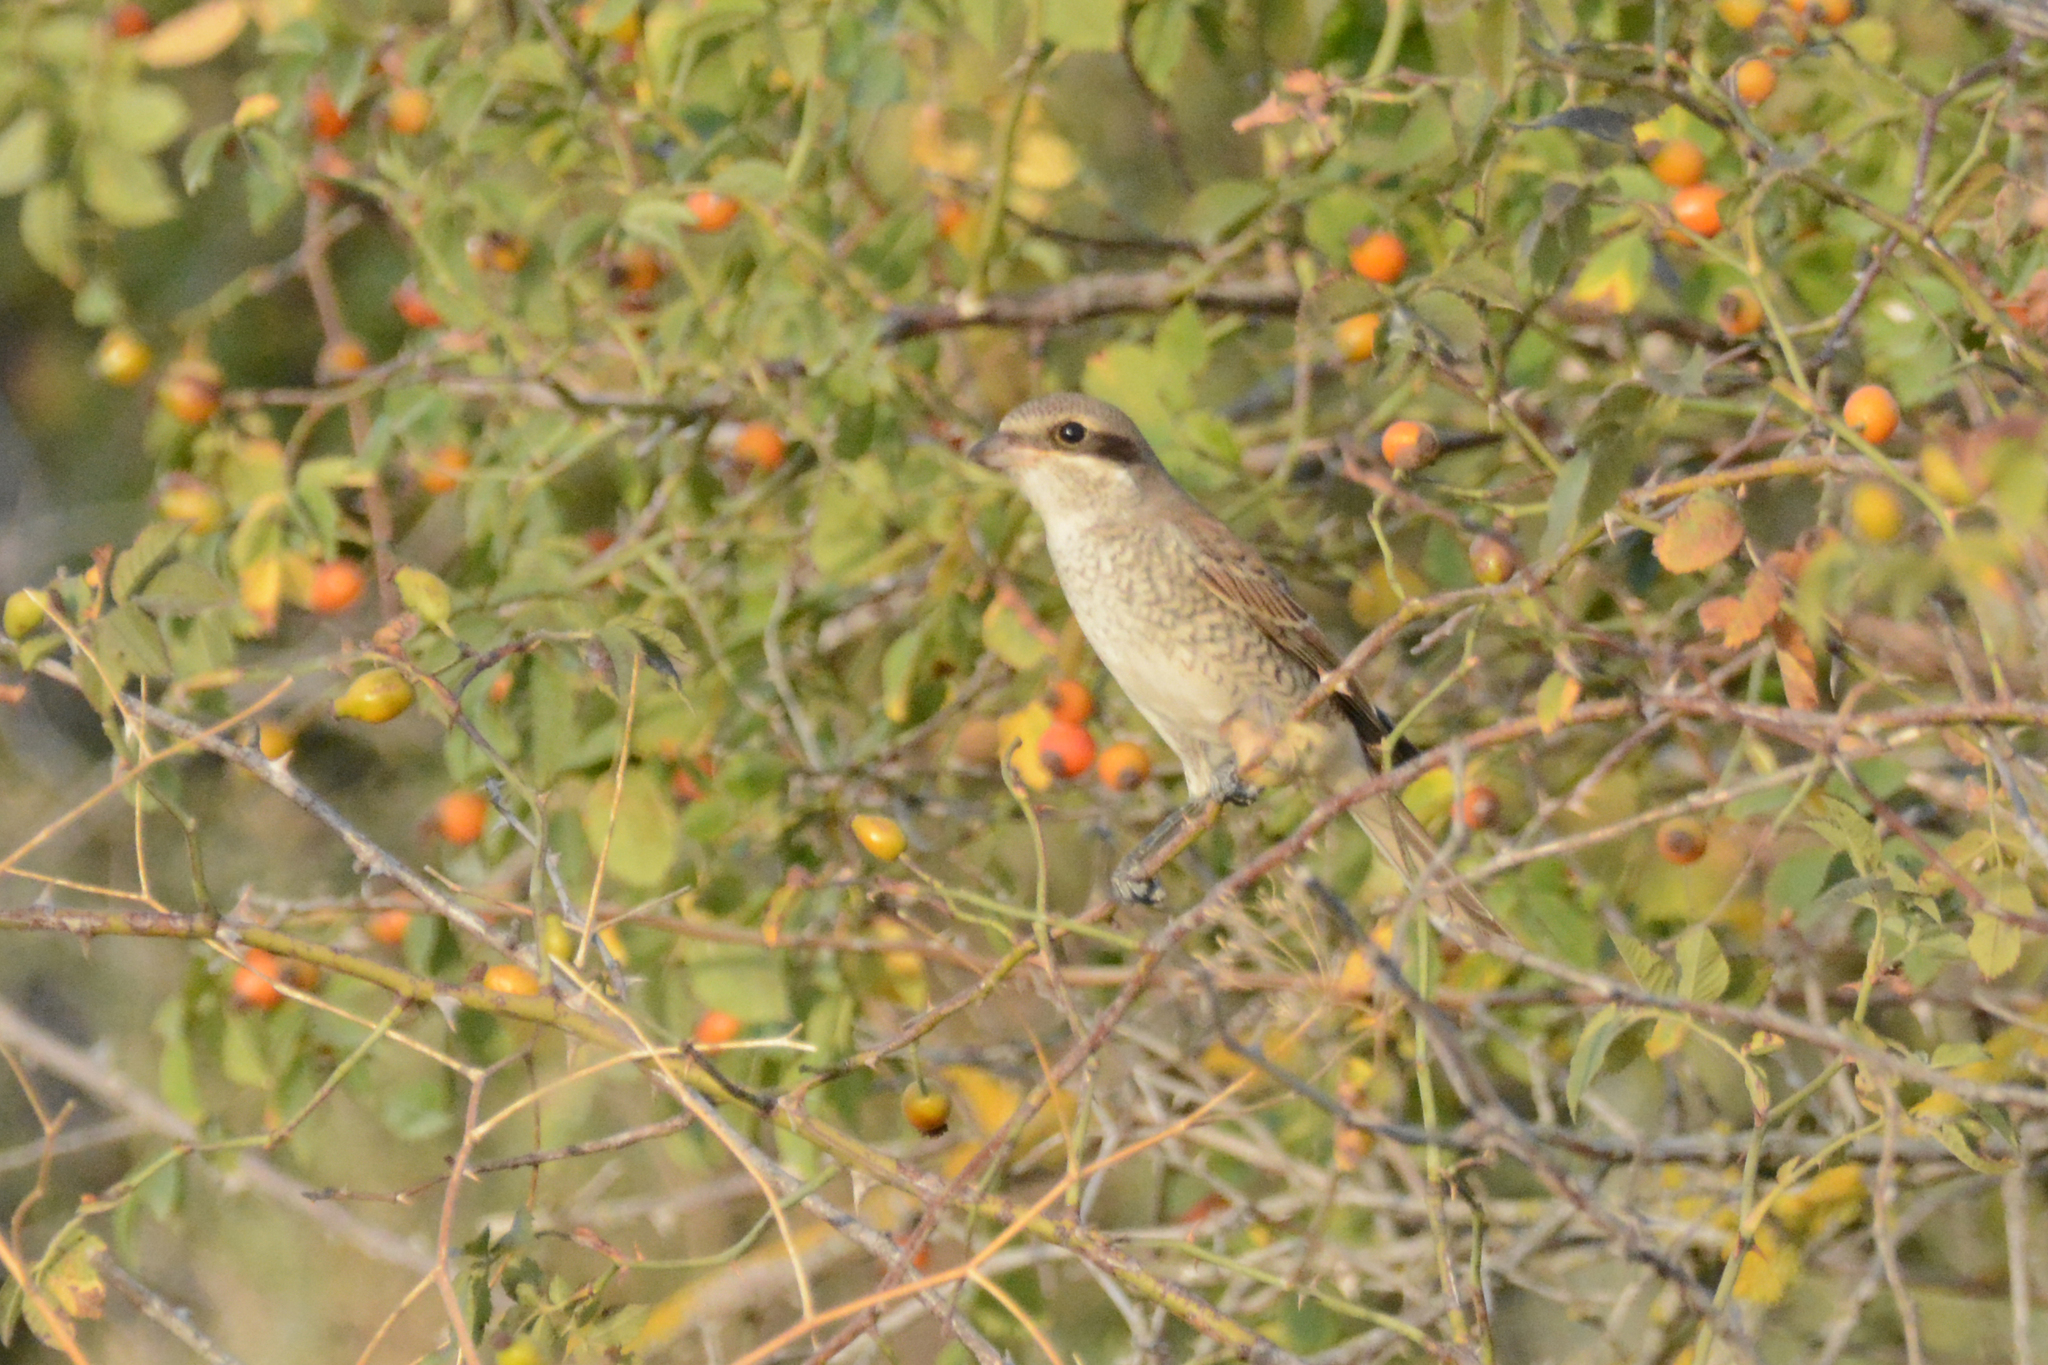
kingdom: Animalia
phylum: Chordata
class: Aves
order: Passeriformes
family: Laniidae
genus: Lanius
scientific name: Lanius collurio
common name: Red-backed shrike
